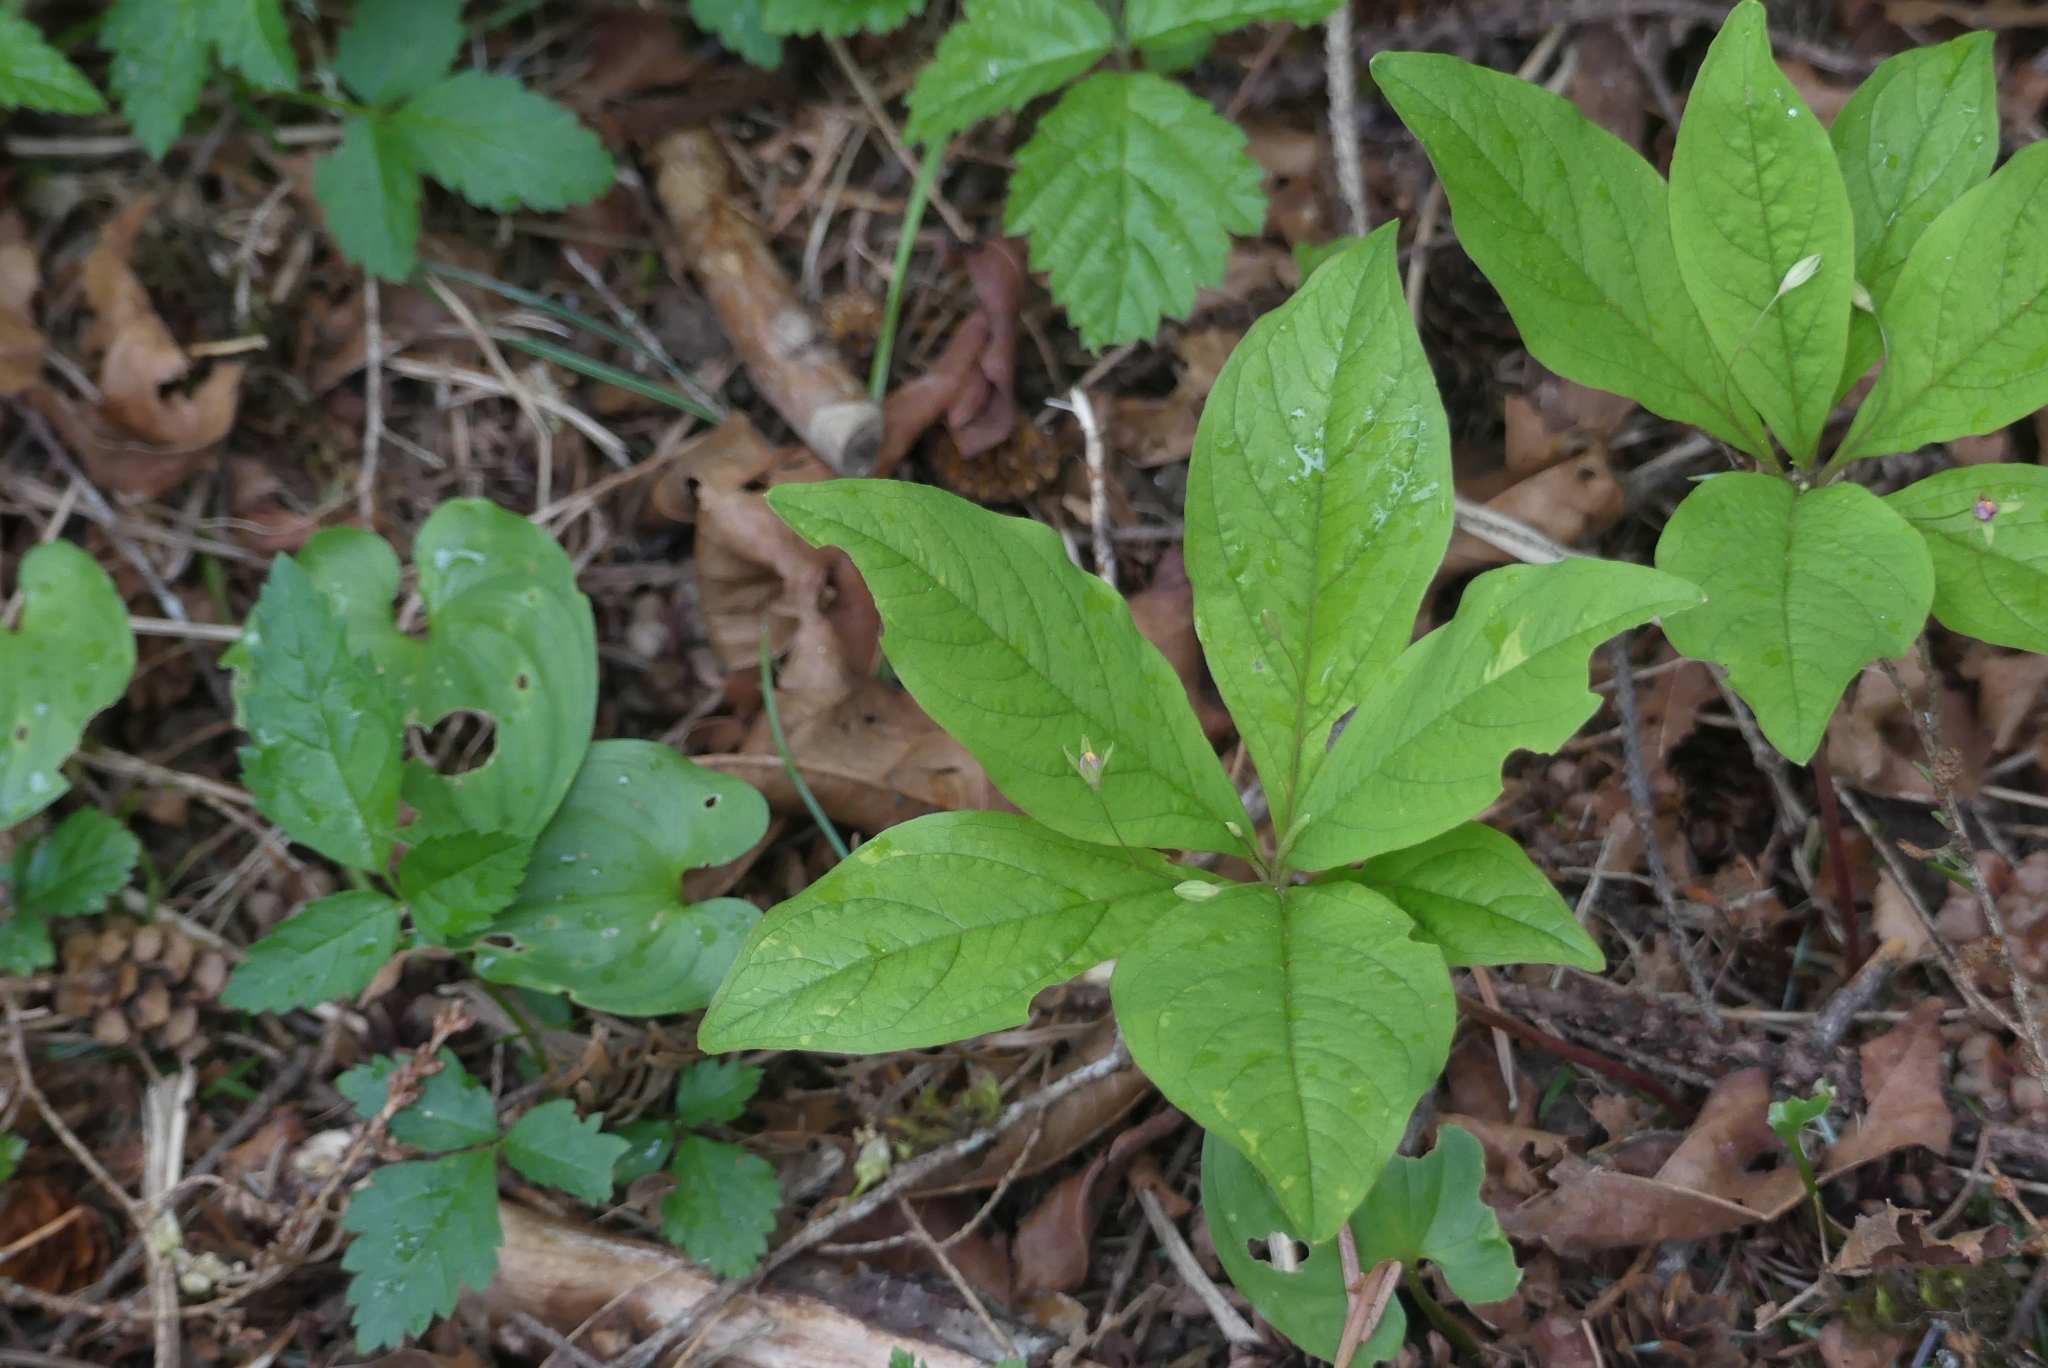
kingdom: Plantae
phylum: Tracheophyta
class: Magnoliopsida
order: Ericales
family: Primulaceae
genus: Lysimachia
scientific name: Lysimachia latifolia
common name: Pacific starflower
